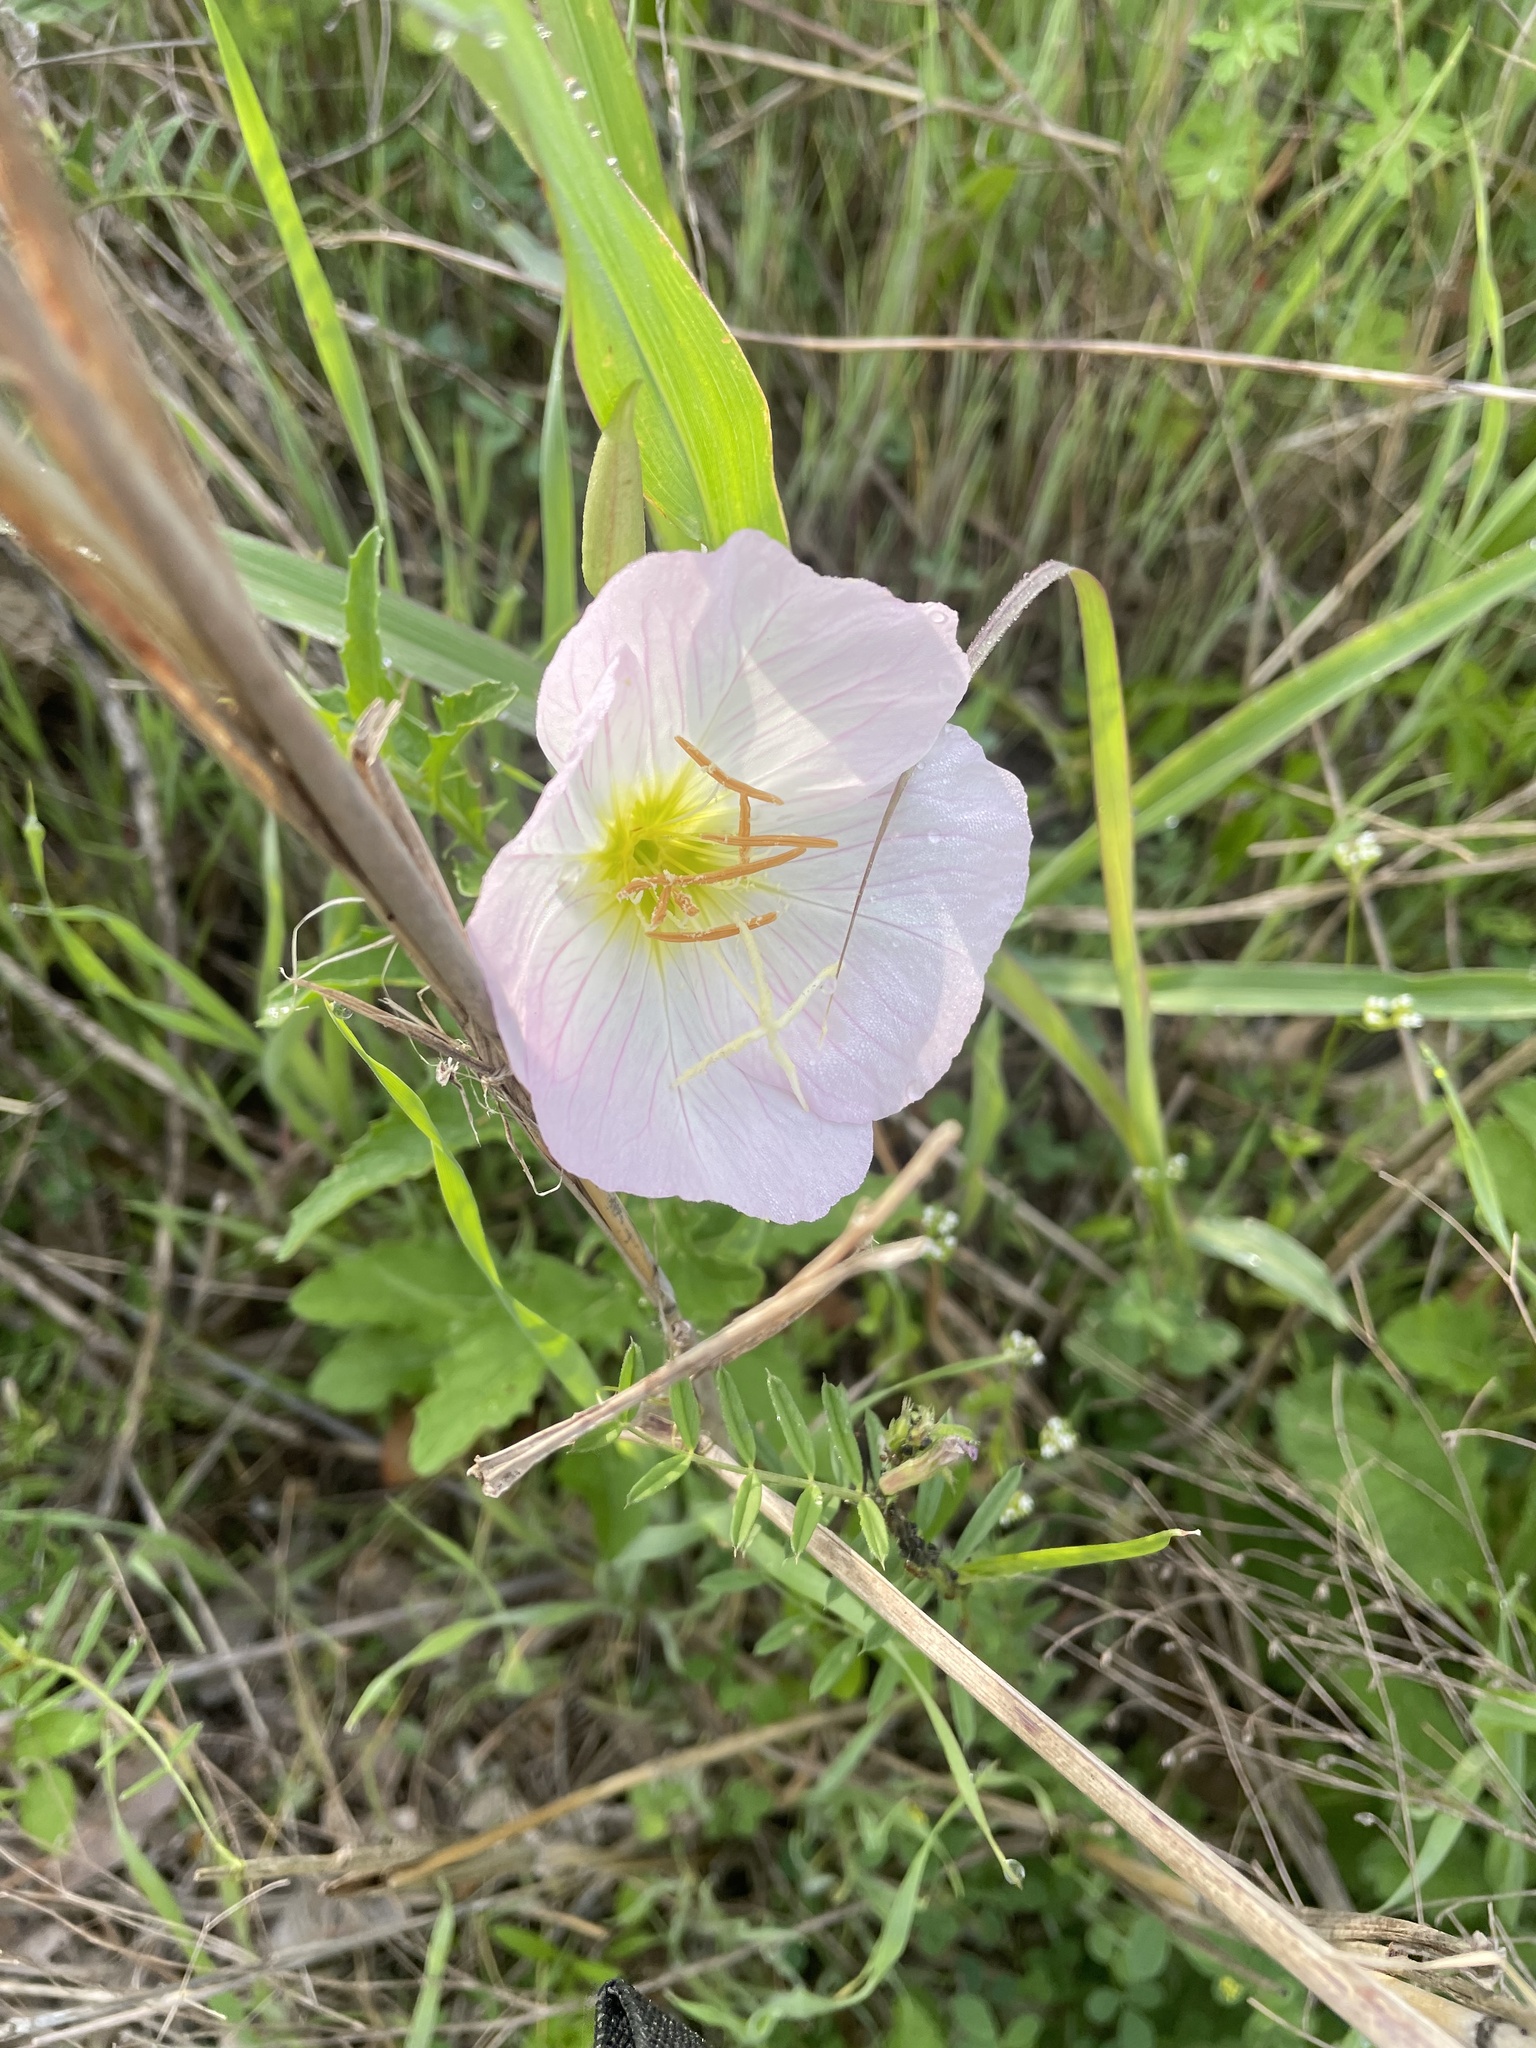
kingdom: Plantae
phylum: Tracheophyta
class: Magnoliopsida
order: Myrtales
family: Onagraceae
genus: Oenothera
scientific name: Oenothera speciosa
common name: White evening-primrose
